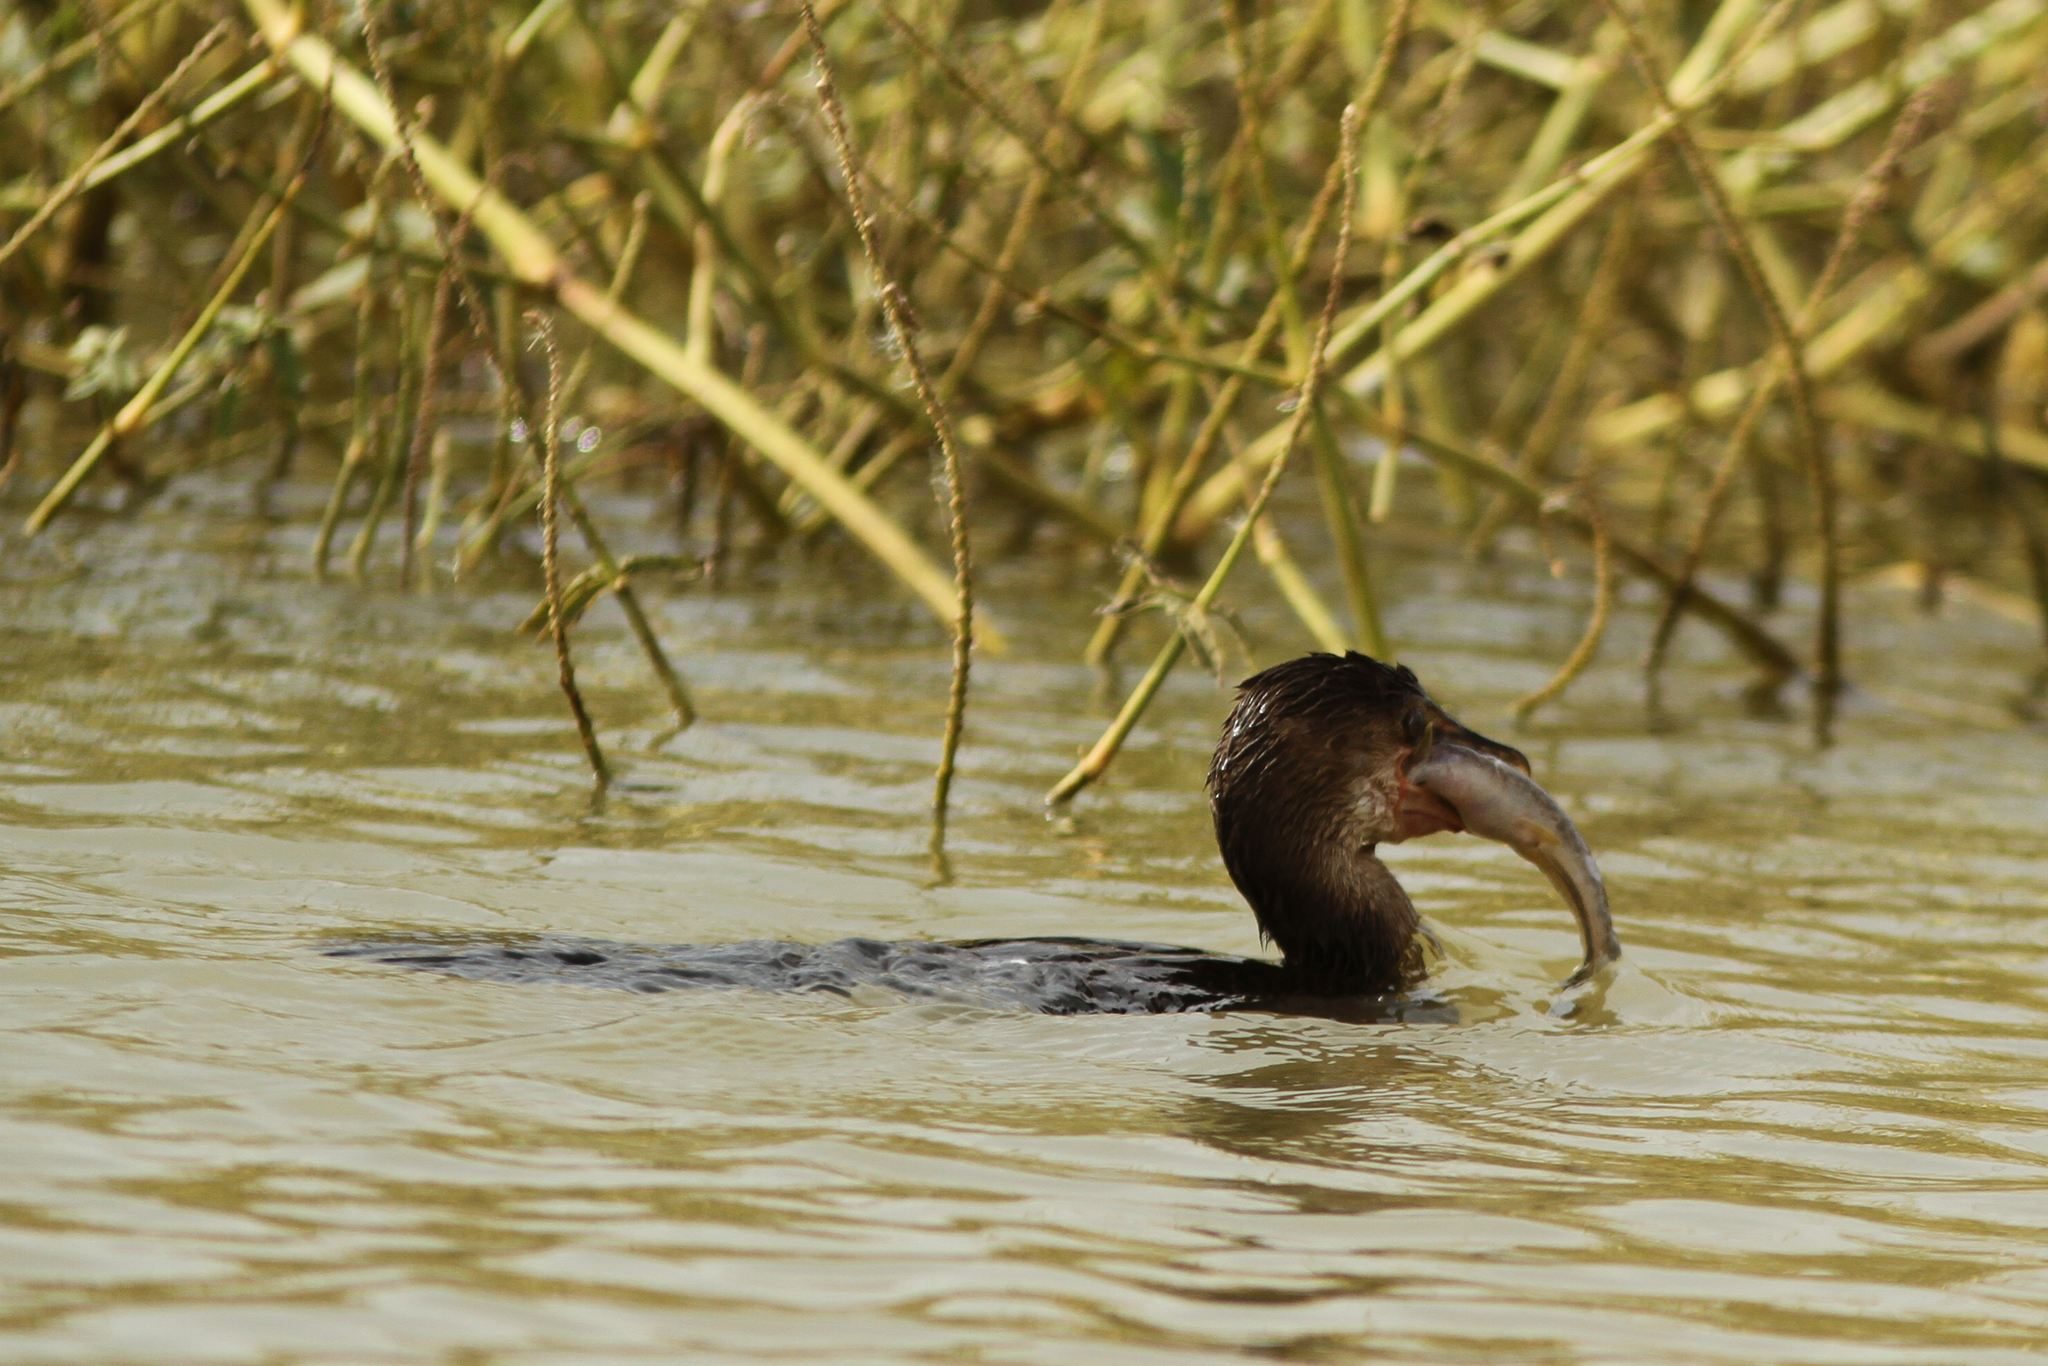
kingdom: Animalia
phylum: Chordata
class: Aves
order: Suliformes
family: Phalacrocoracidae
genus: Microcarbo
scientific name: Microcarbo africanus
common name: Long-tailed cormorant
